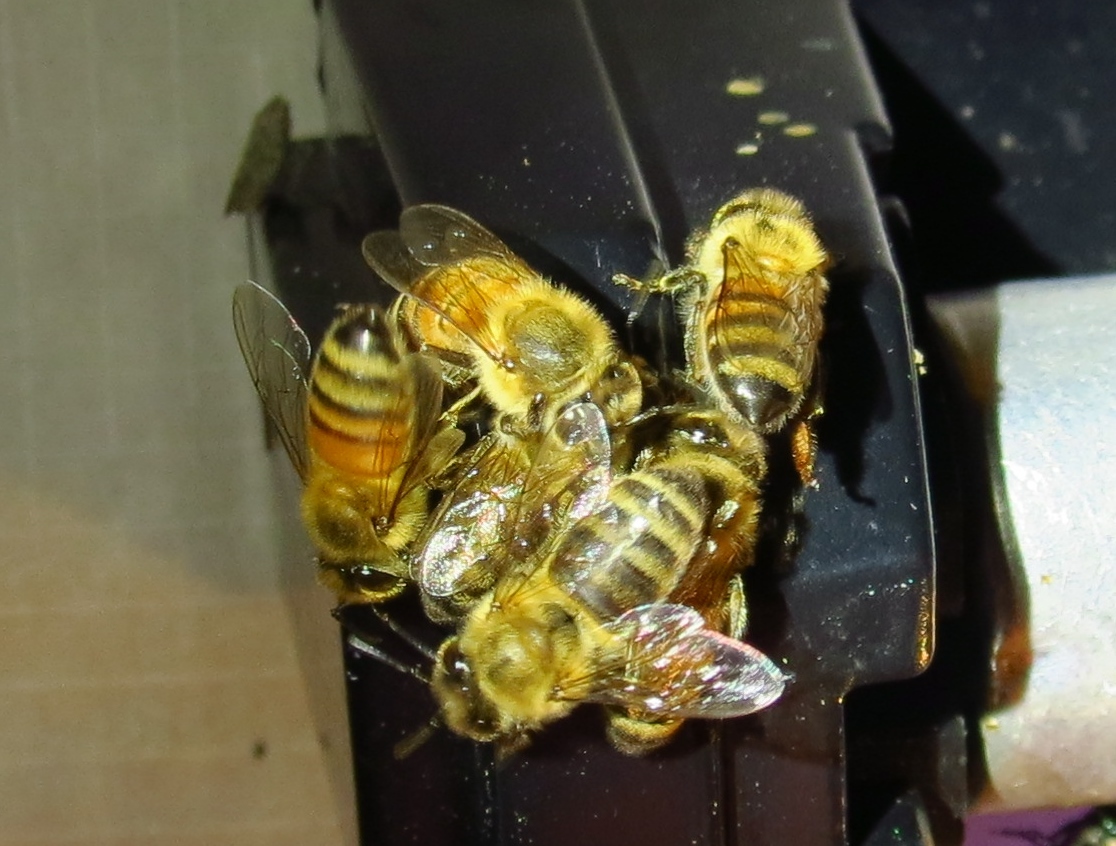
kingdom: Animalia
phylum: Arthropoda
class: Insecta
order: Hymenoptera
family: Apidae
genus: Apis
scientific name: Apis mellifera
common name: Honey bee
